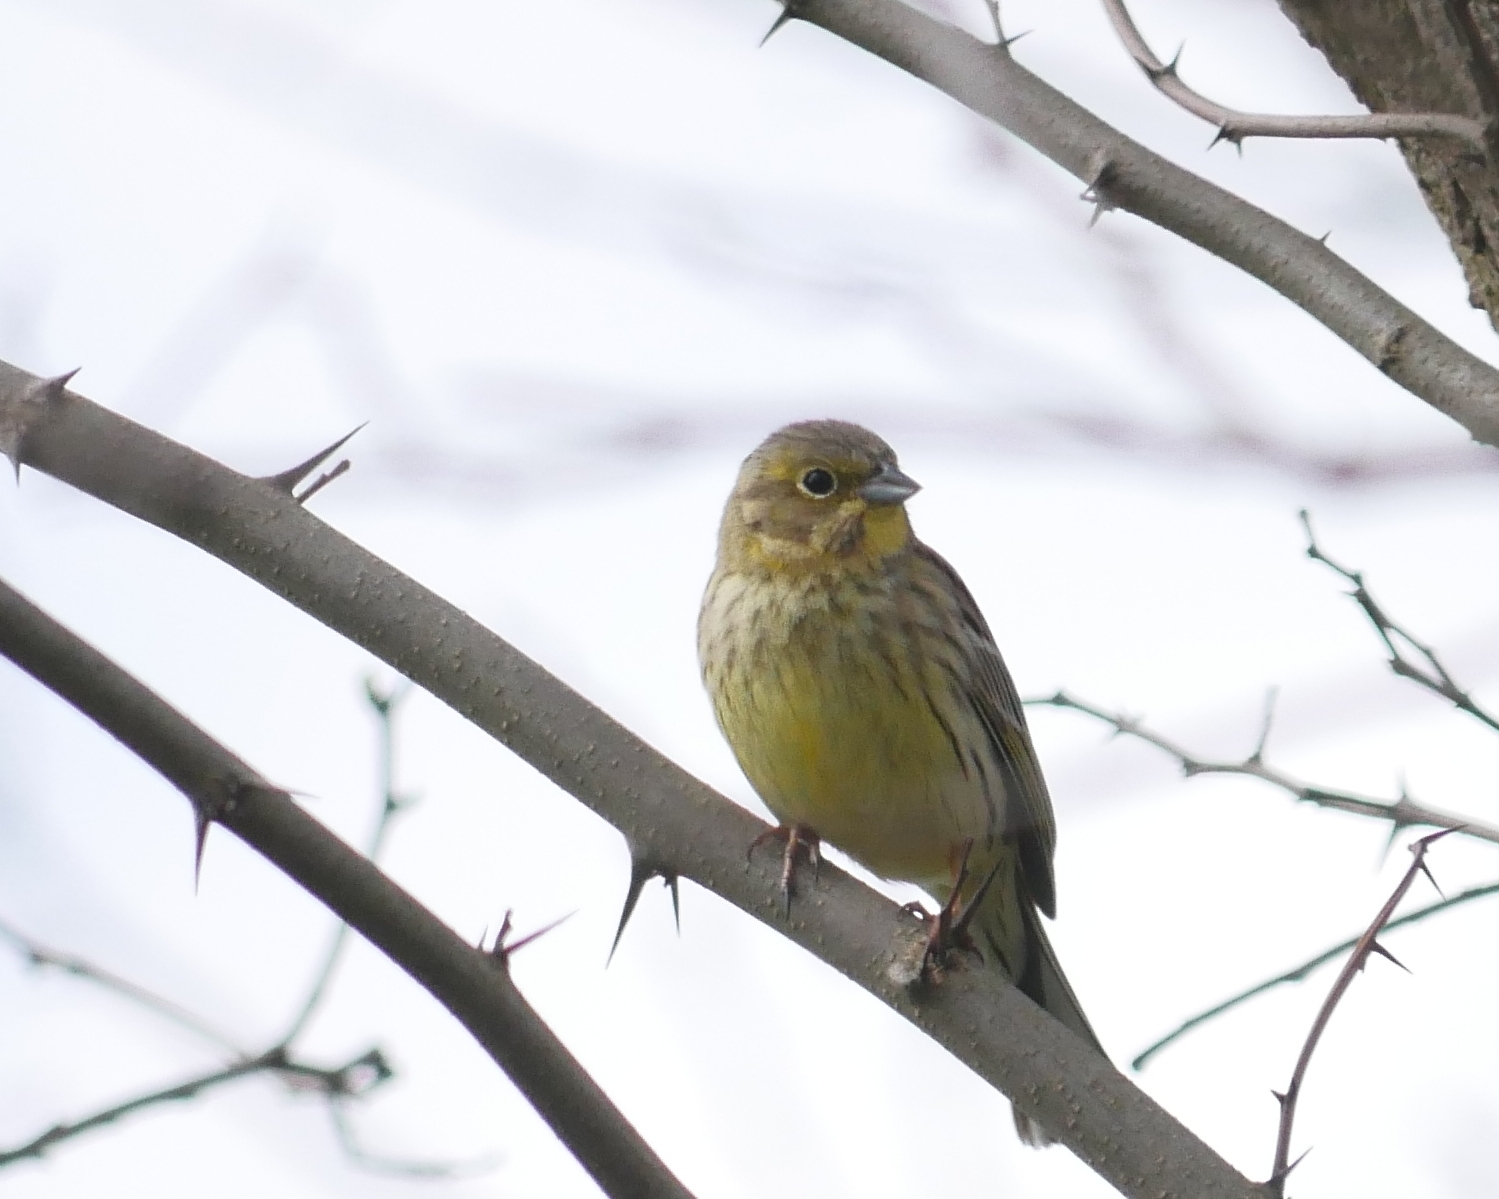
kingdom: Animalia
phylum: Chordata
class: Aves
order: Passeriformes
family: Emberizidae
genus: Emberiza
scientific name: Emberiza citrinella
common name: Yellowhammer
